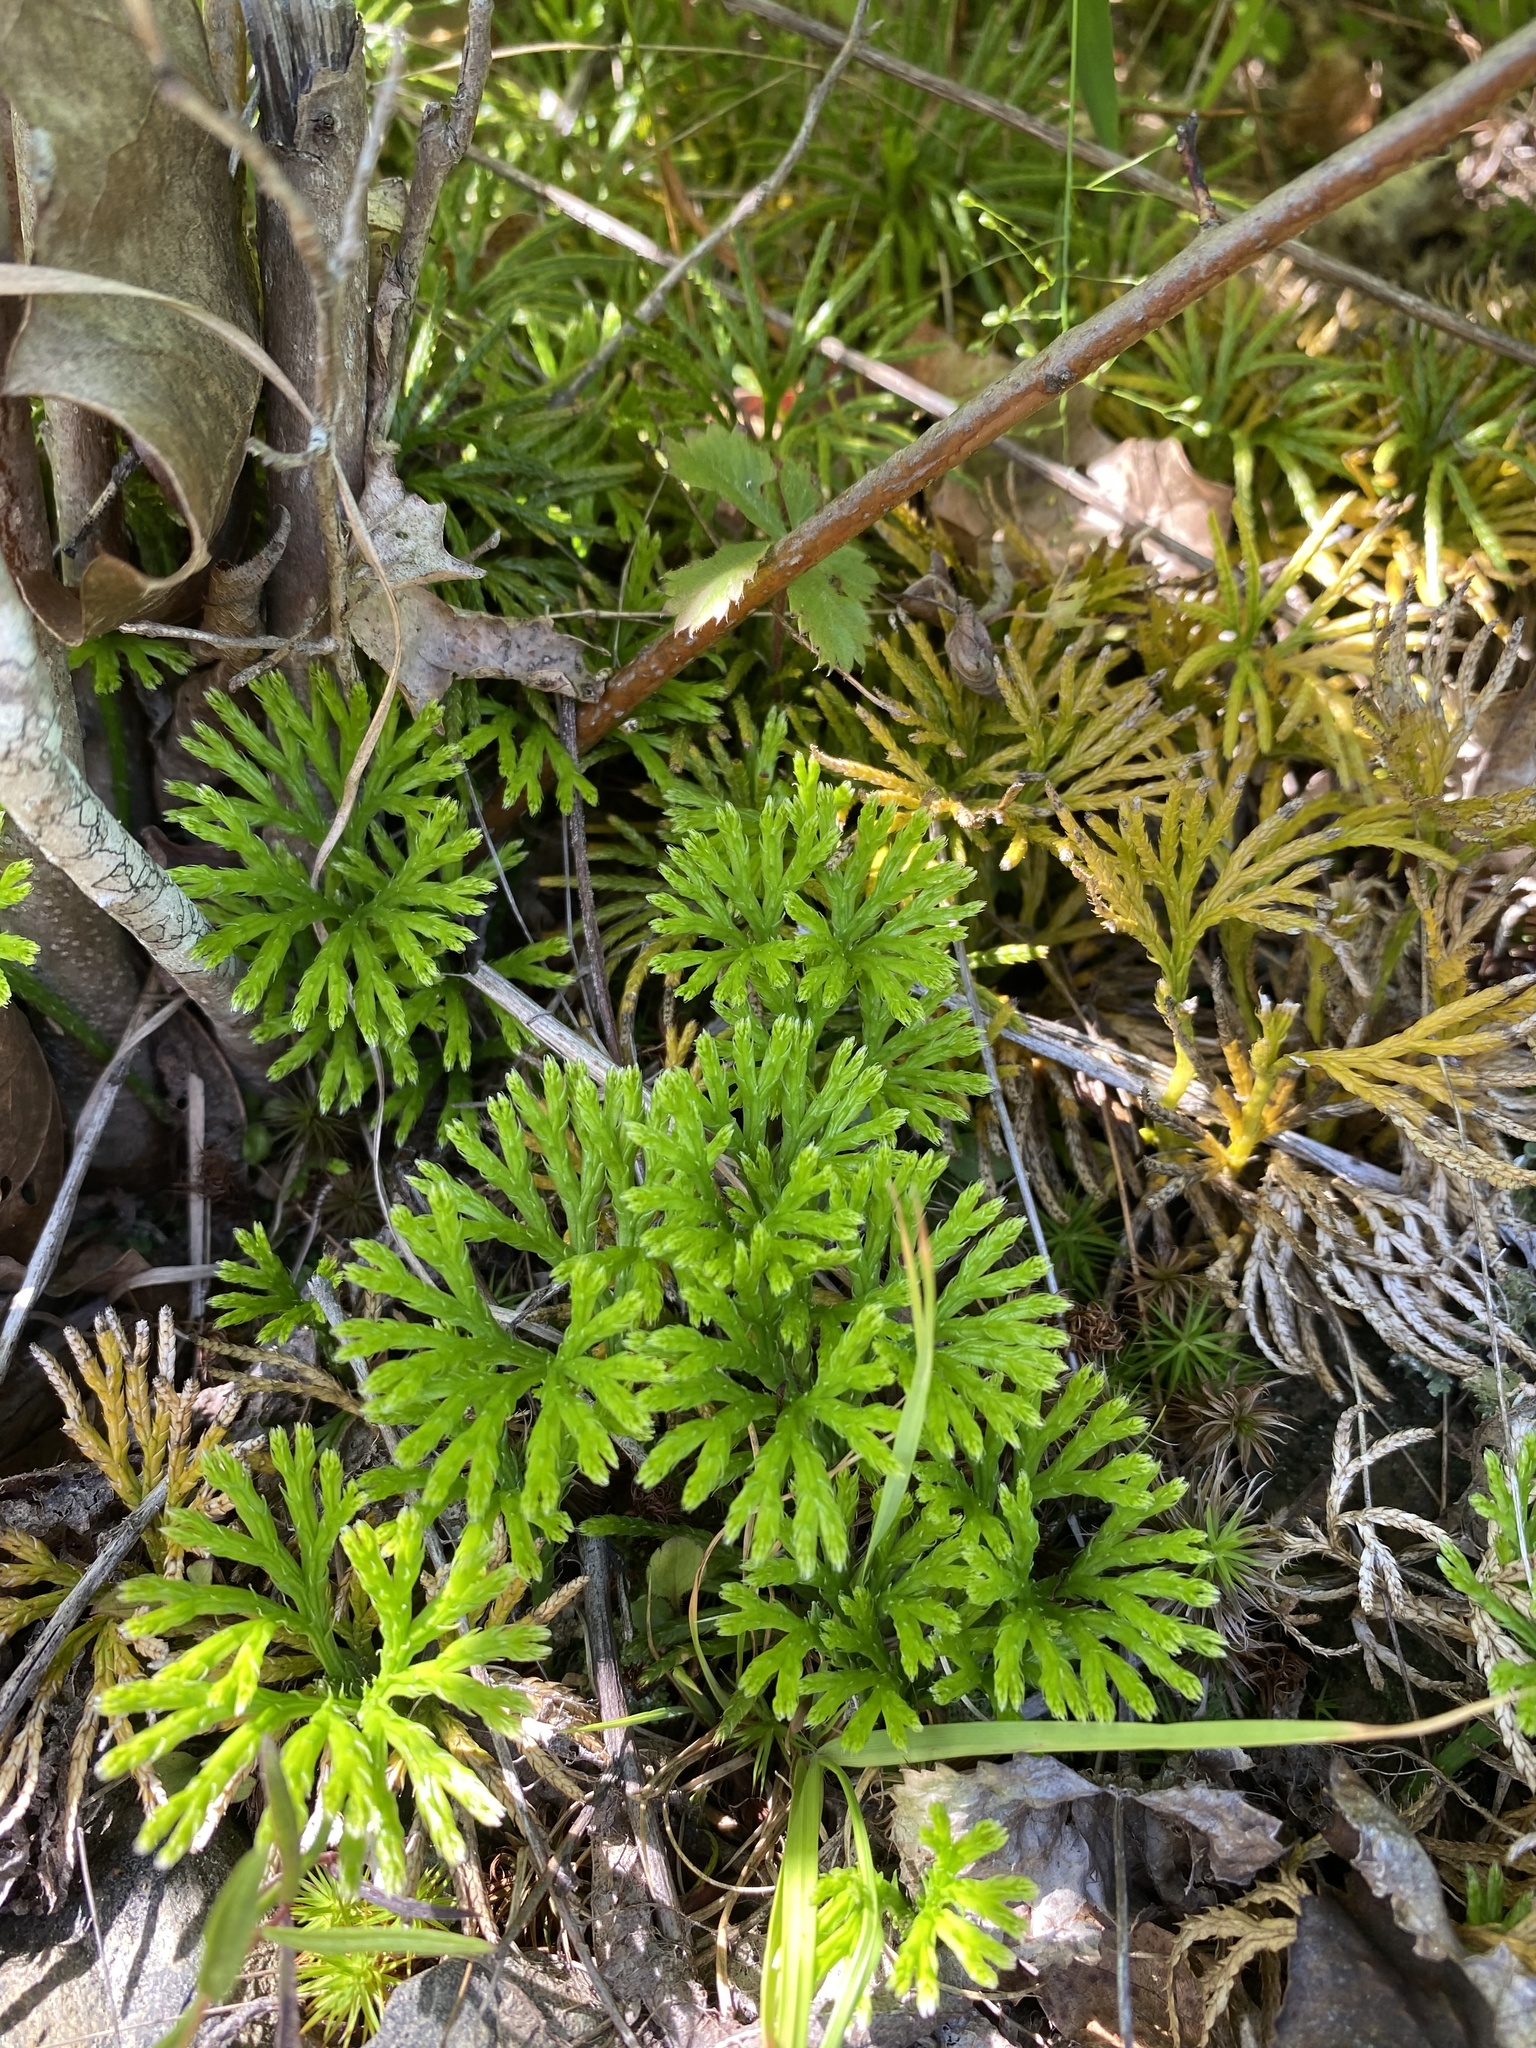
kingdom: Plantae
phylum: Tracheophyta
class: Lycopodiopsida
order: Lycopodiales
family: Lycopodiaceae
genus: Diphasiastrum
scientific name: Diphasiastrum digitatum
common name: Southern running-pine
